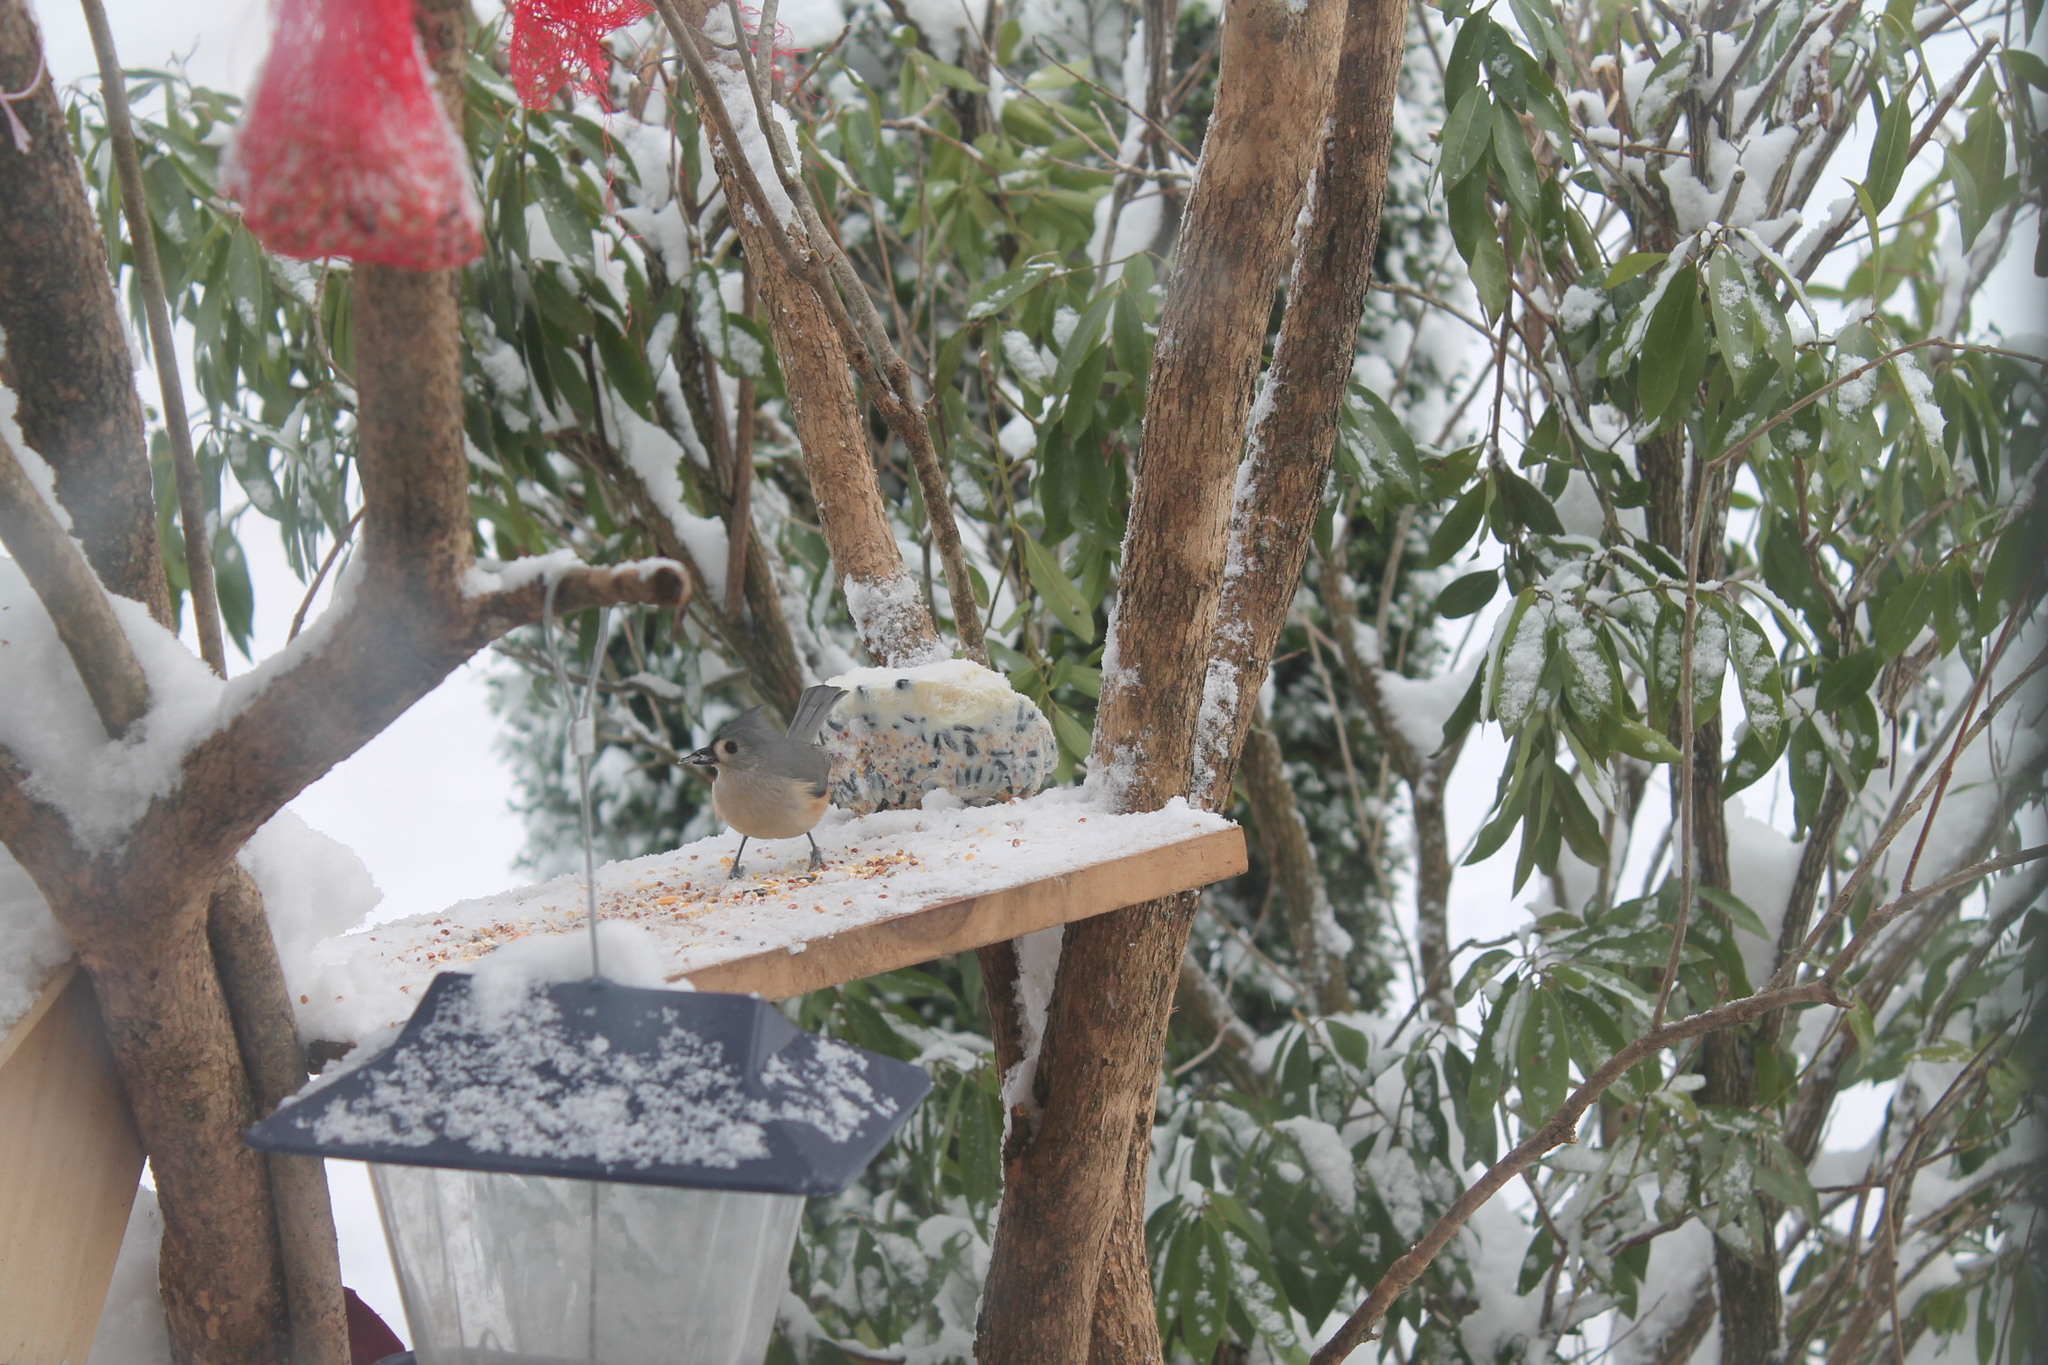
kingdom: Animalia
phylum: Chordata
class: Aves
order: Passeriformes
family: Paridae
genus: Baeolophus
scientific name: Baeolophus bicolor
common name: Tufted titmouse
